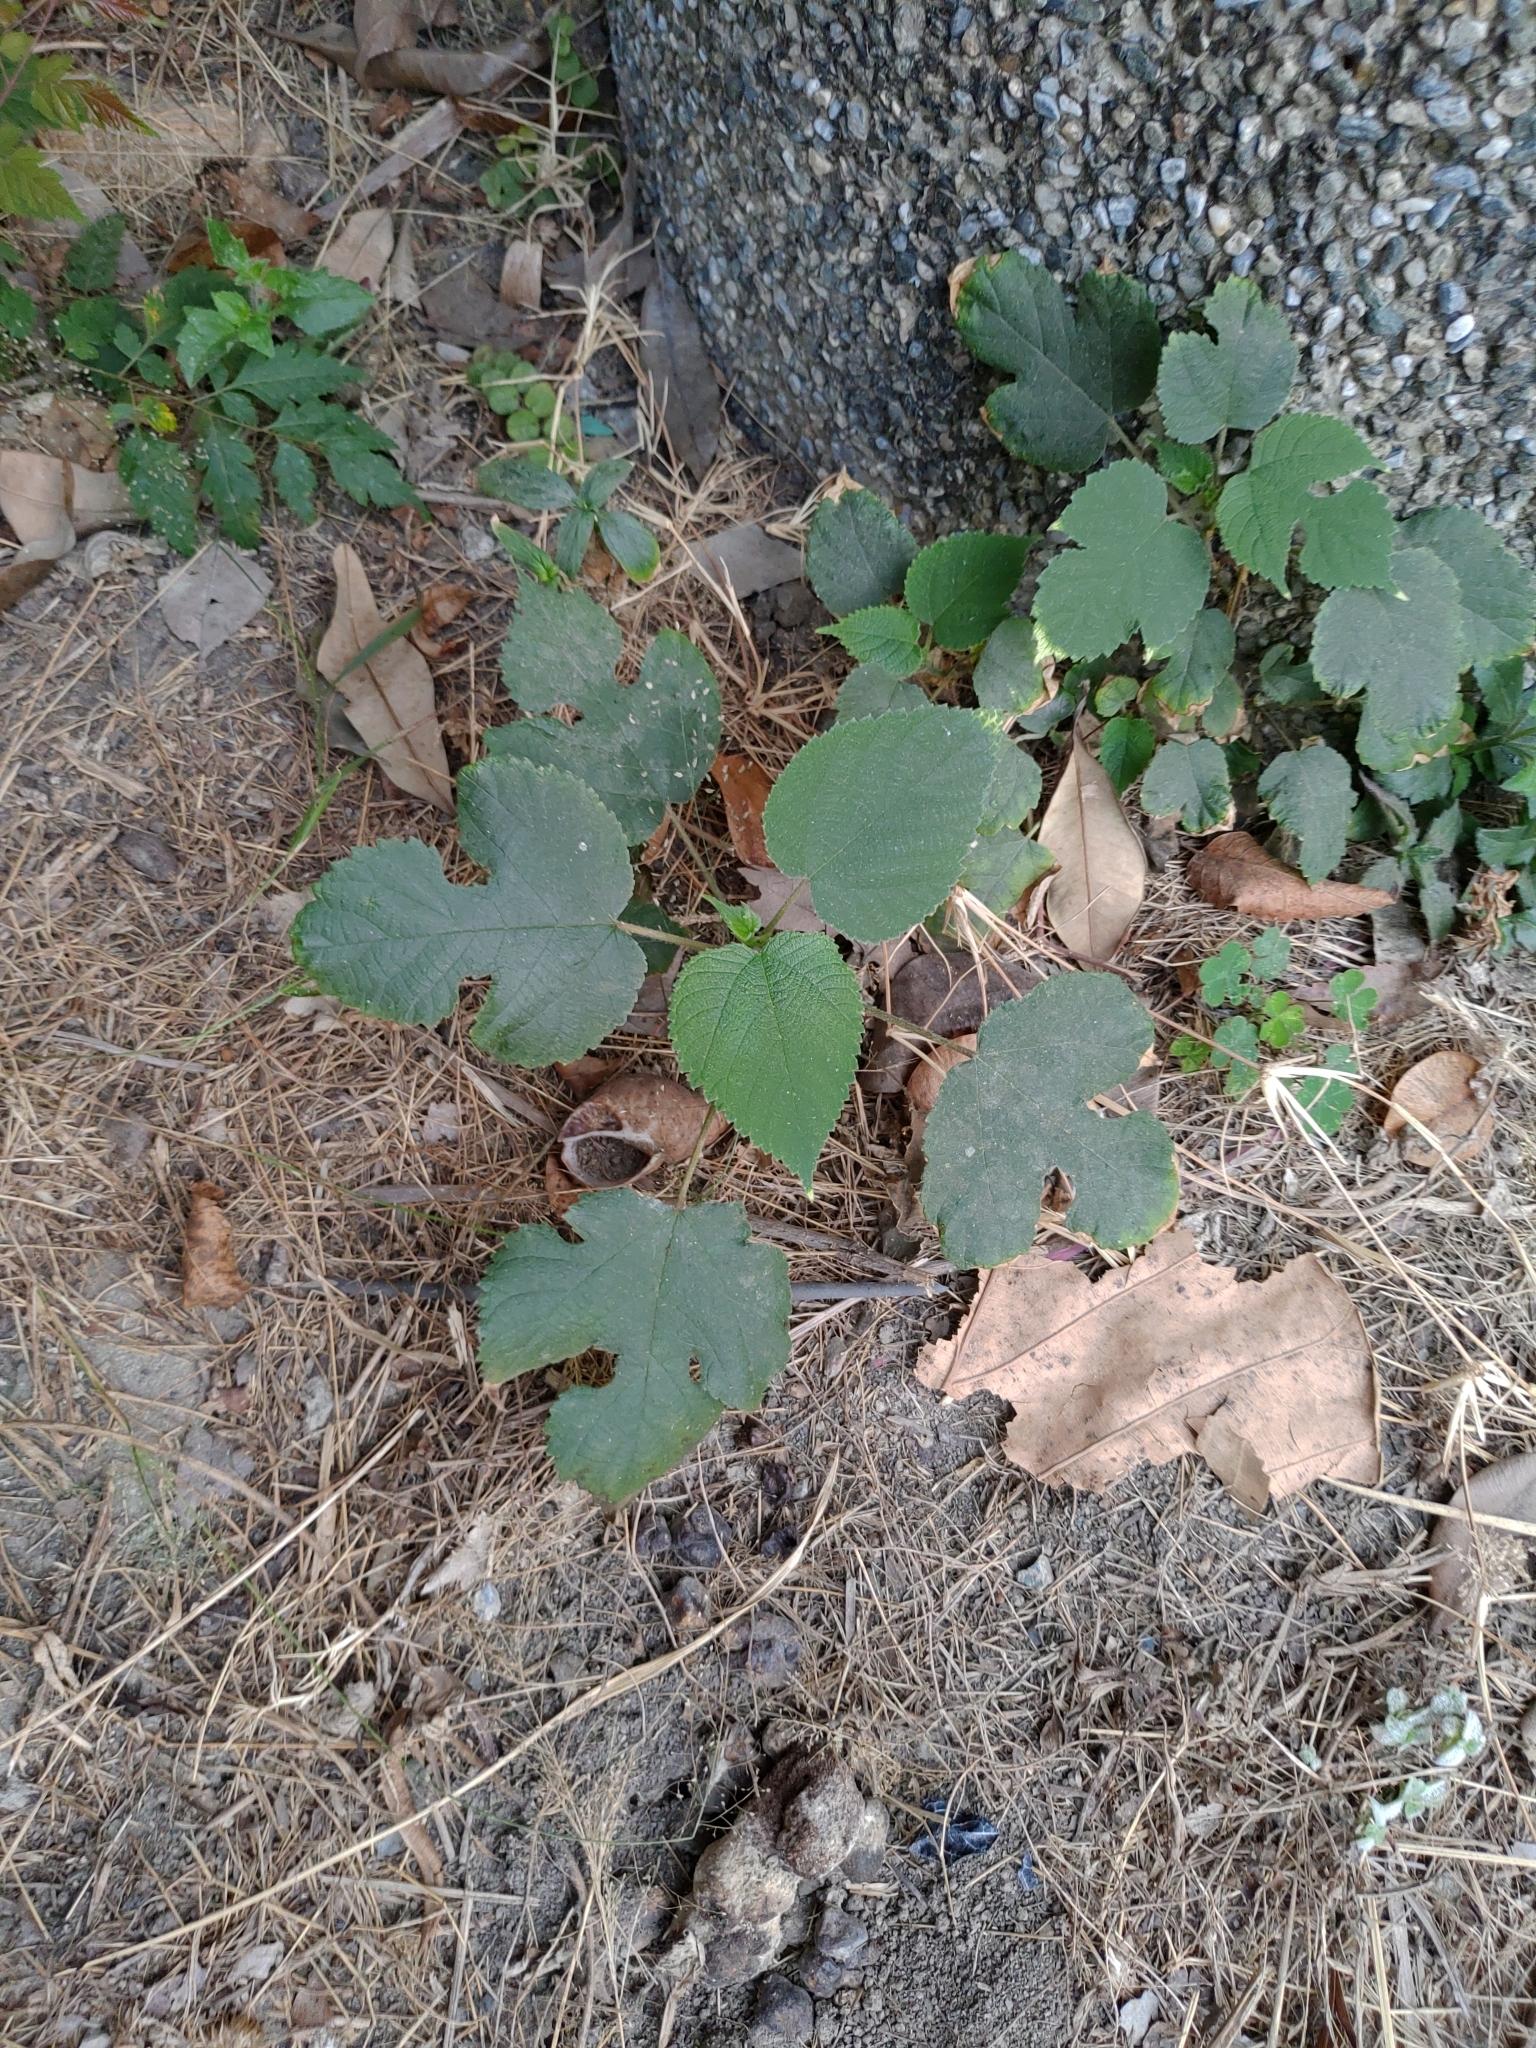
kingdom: Plantae
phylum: Tracheophyta
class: Magnoliopsida
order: Rosales
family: Moraceae
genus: Broussonetia
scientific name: Broussonetia papyrifera
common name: Paper mulberry
